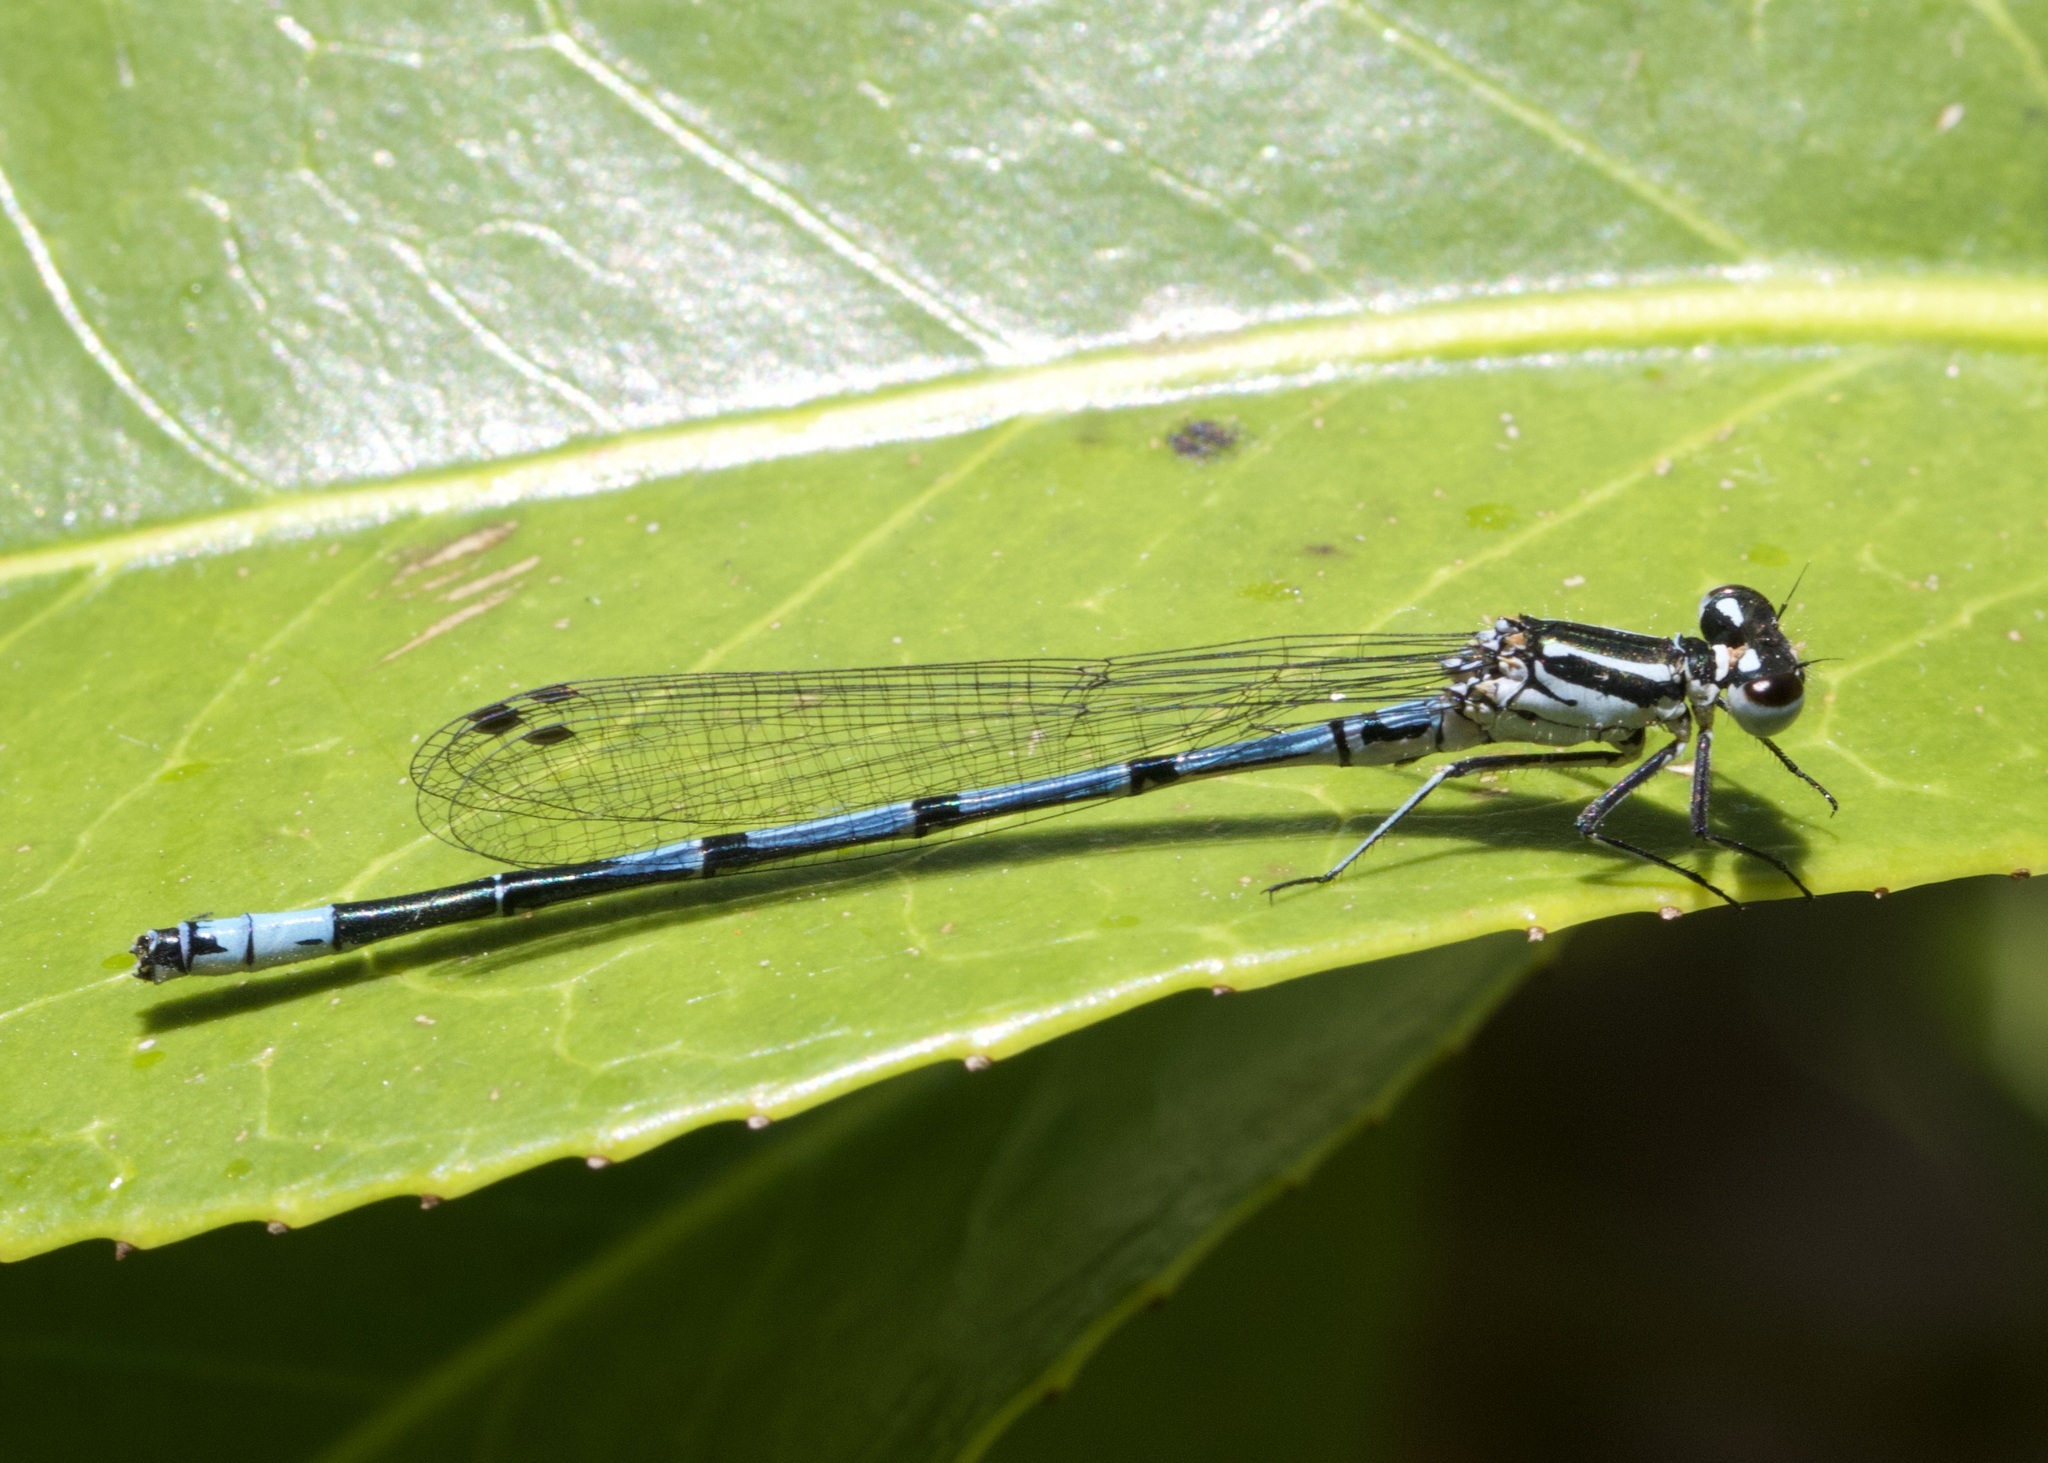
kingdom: Animalia
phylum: Arthropoda
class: Insecta
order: Odonata
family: Coenagrionidae
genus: Coenagrion
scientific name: Coenagrion puella
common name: Azure damselfly
